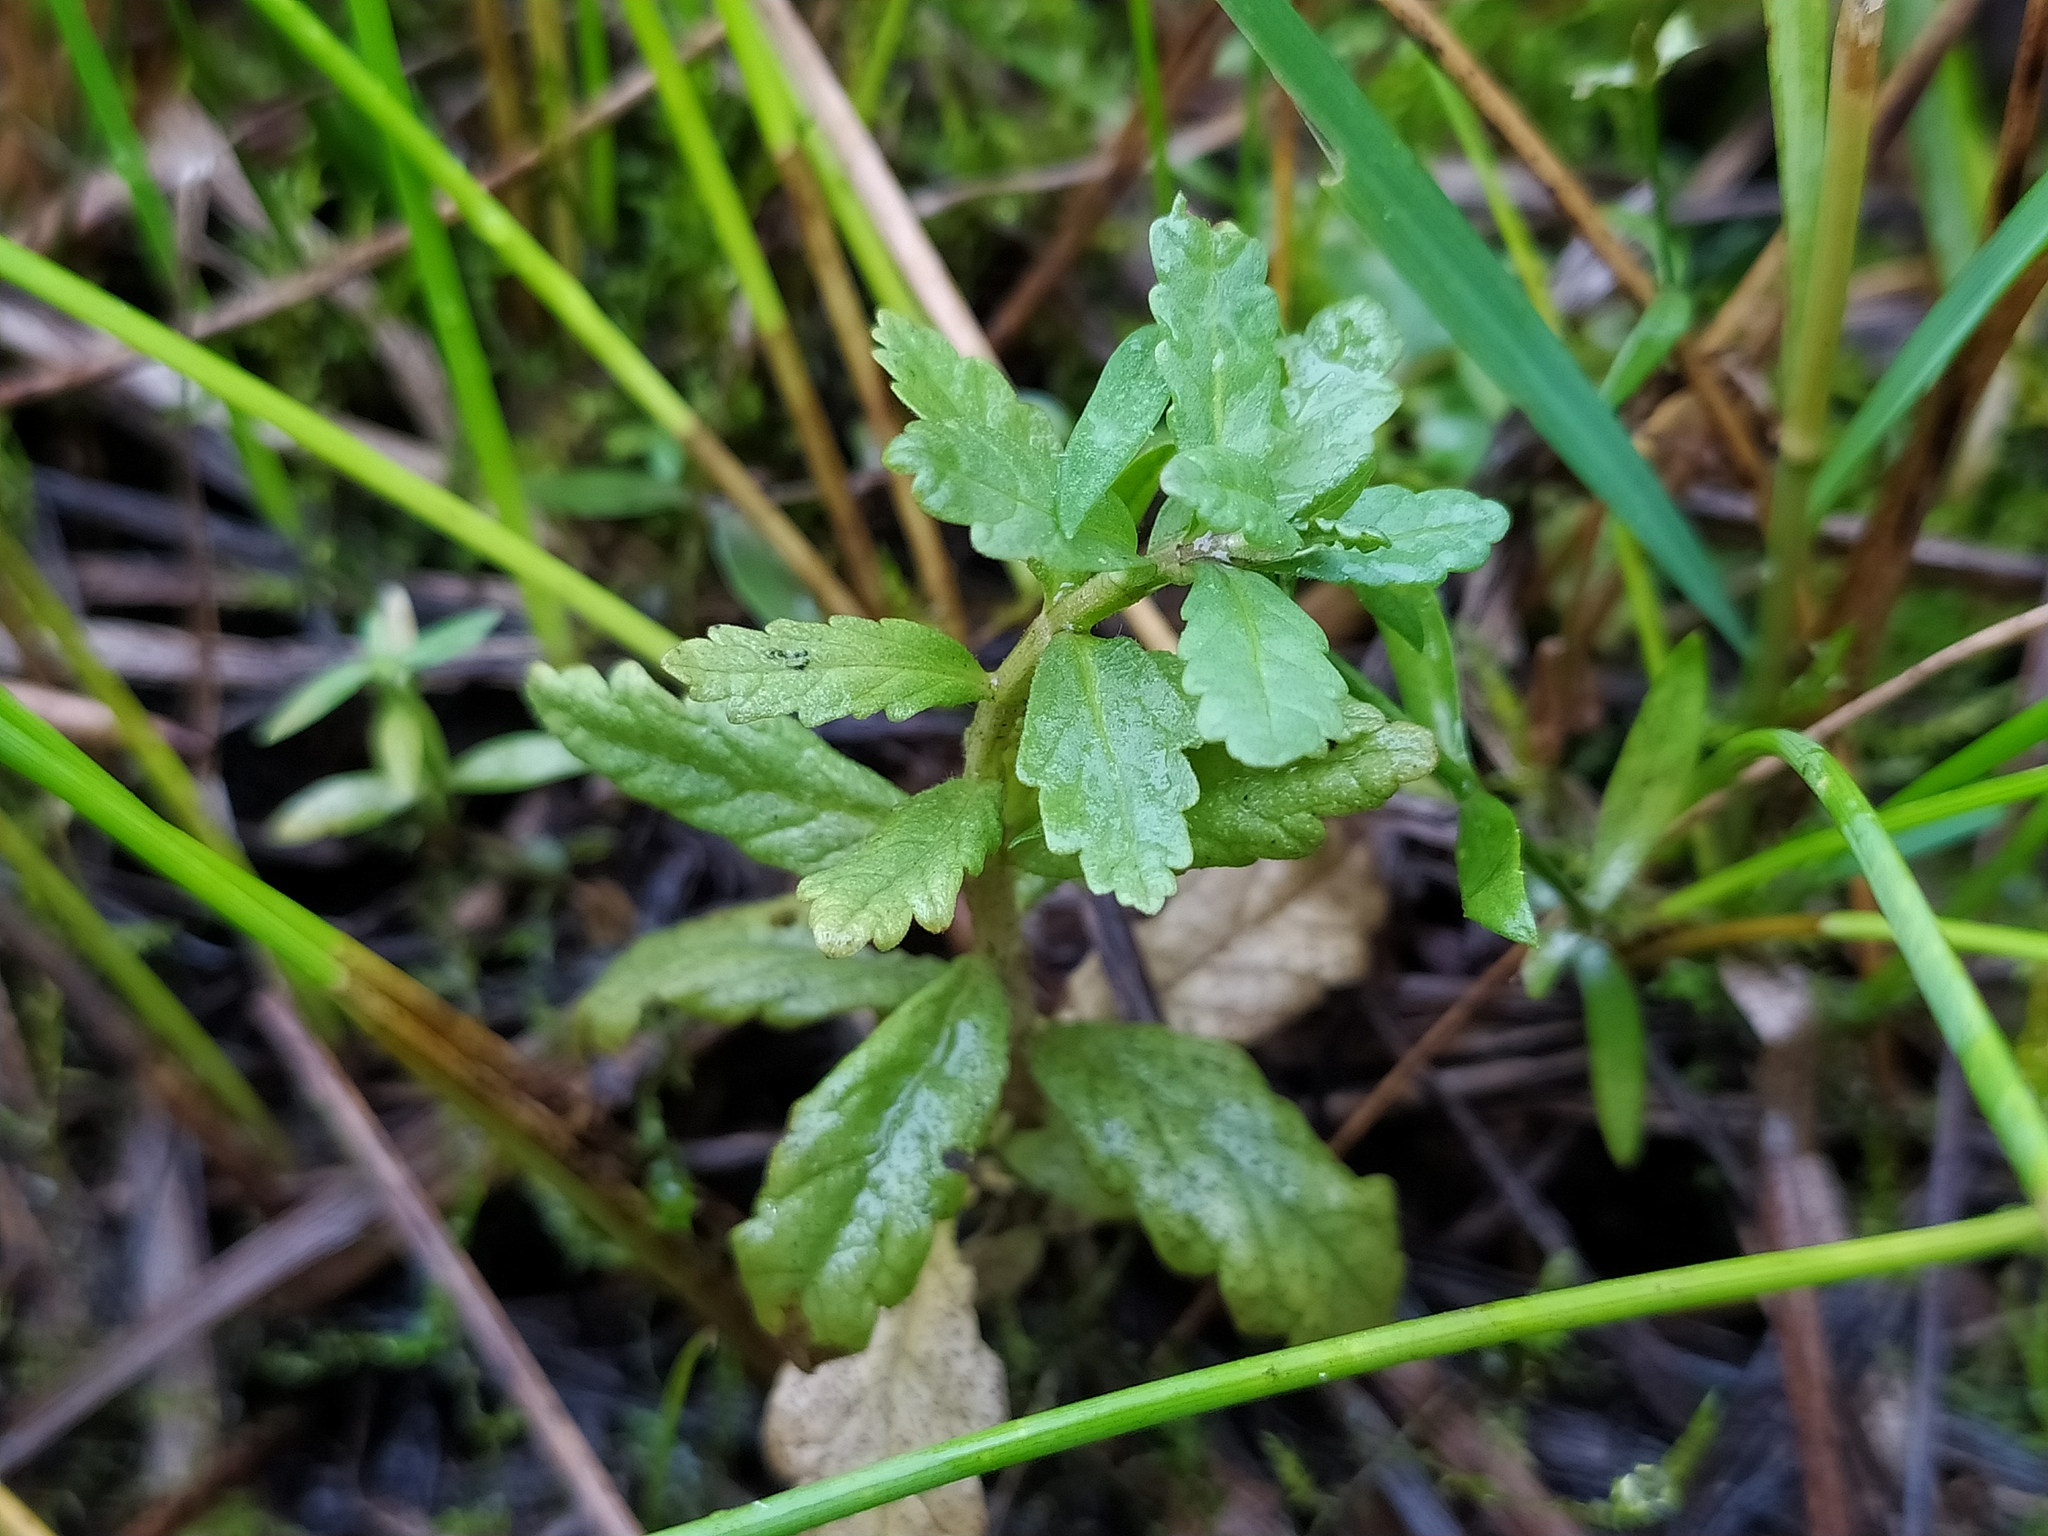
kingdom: Plantae
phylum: Tracheophyta
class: Magnoliopsida
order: Lamiales
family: Lamiaceae
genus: Teucrium
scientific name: Teucrium scordium
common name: Water germander
